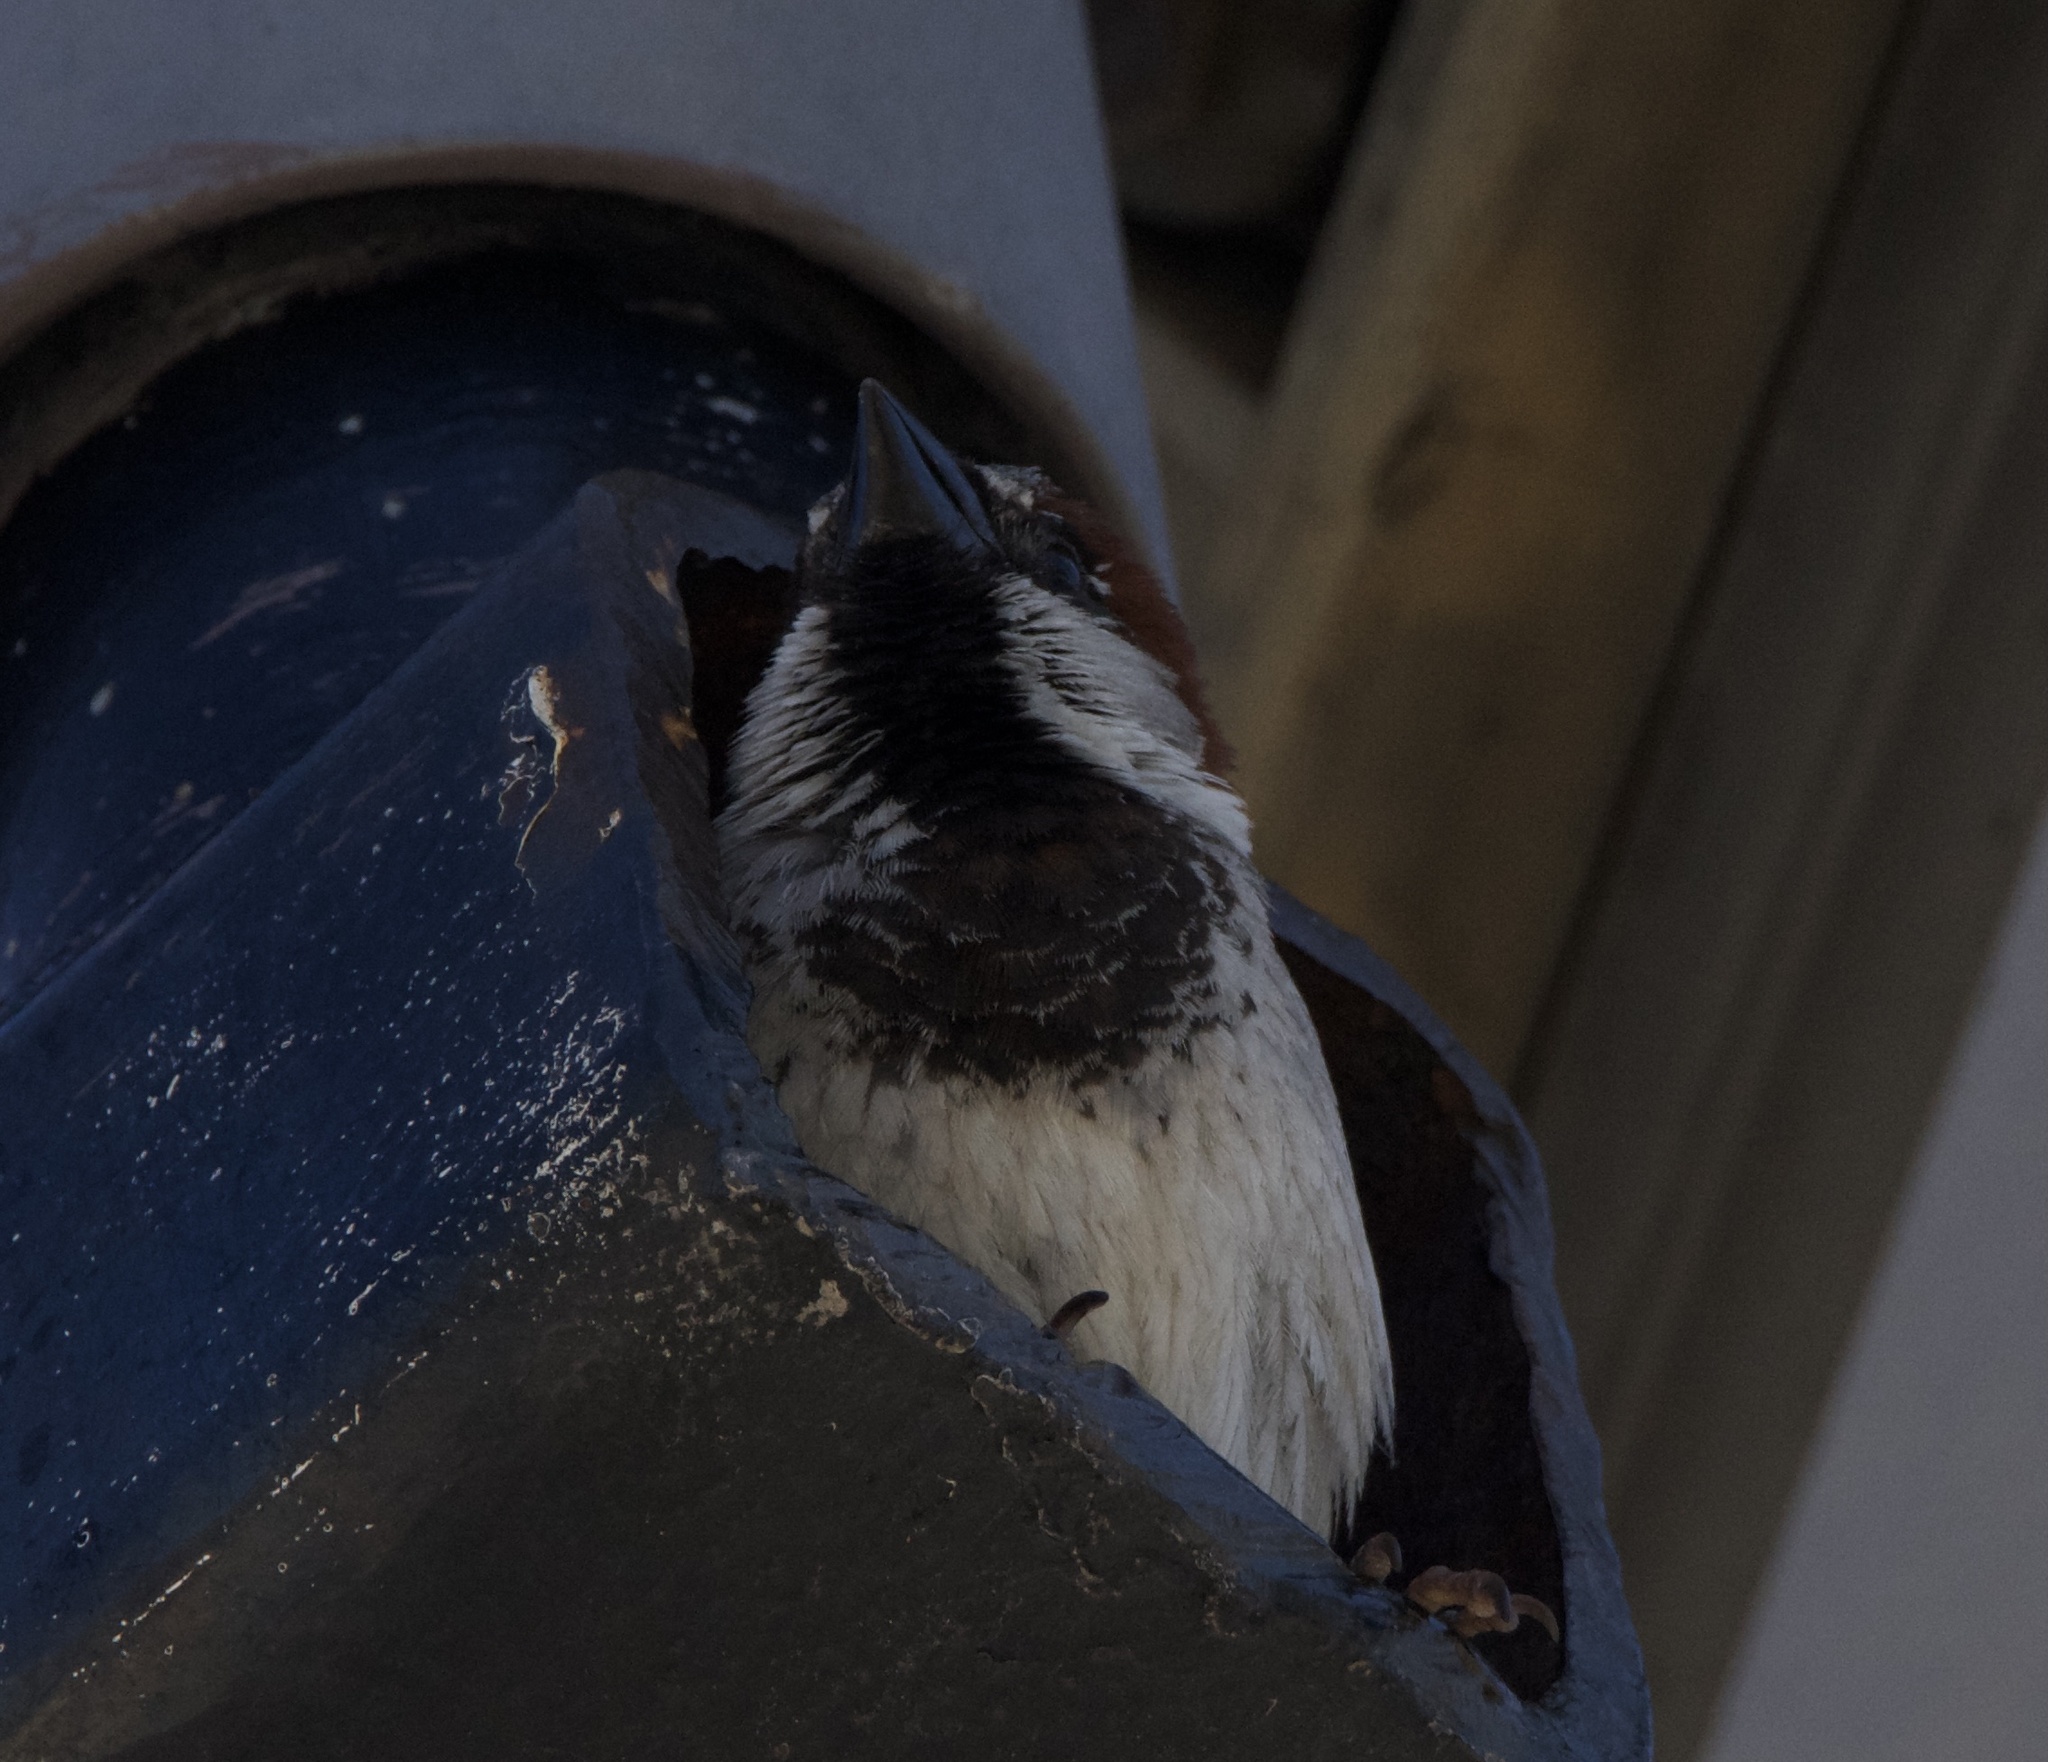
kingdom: Animalia
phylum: Chordata
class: Aves
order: Passeriformes
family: Passeridae
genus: Passer
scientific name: Passer domesticus
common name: House sparrow
